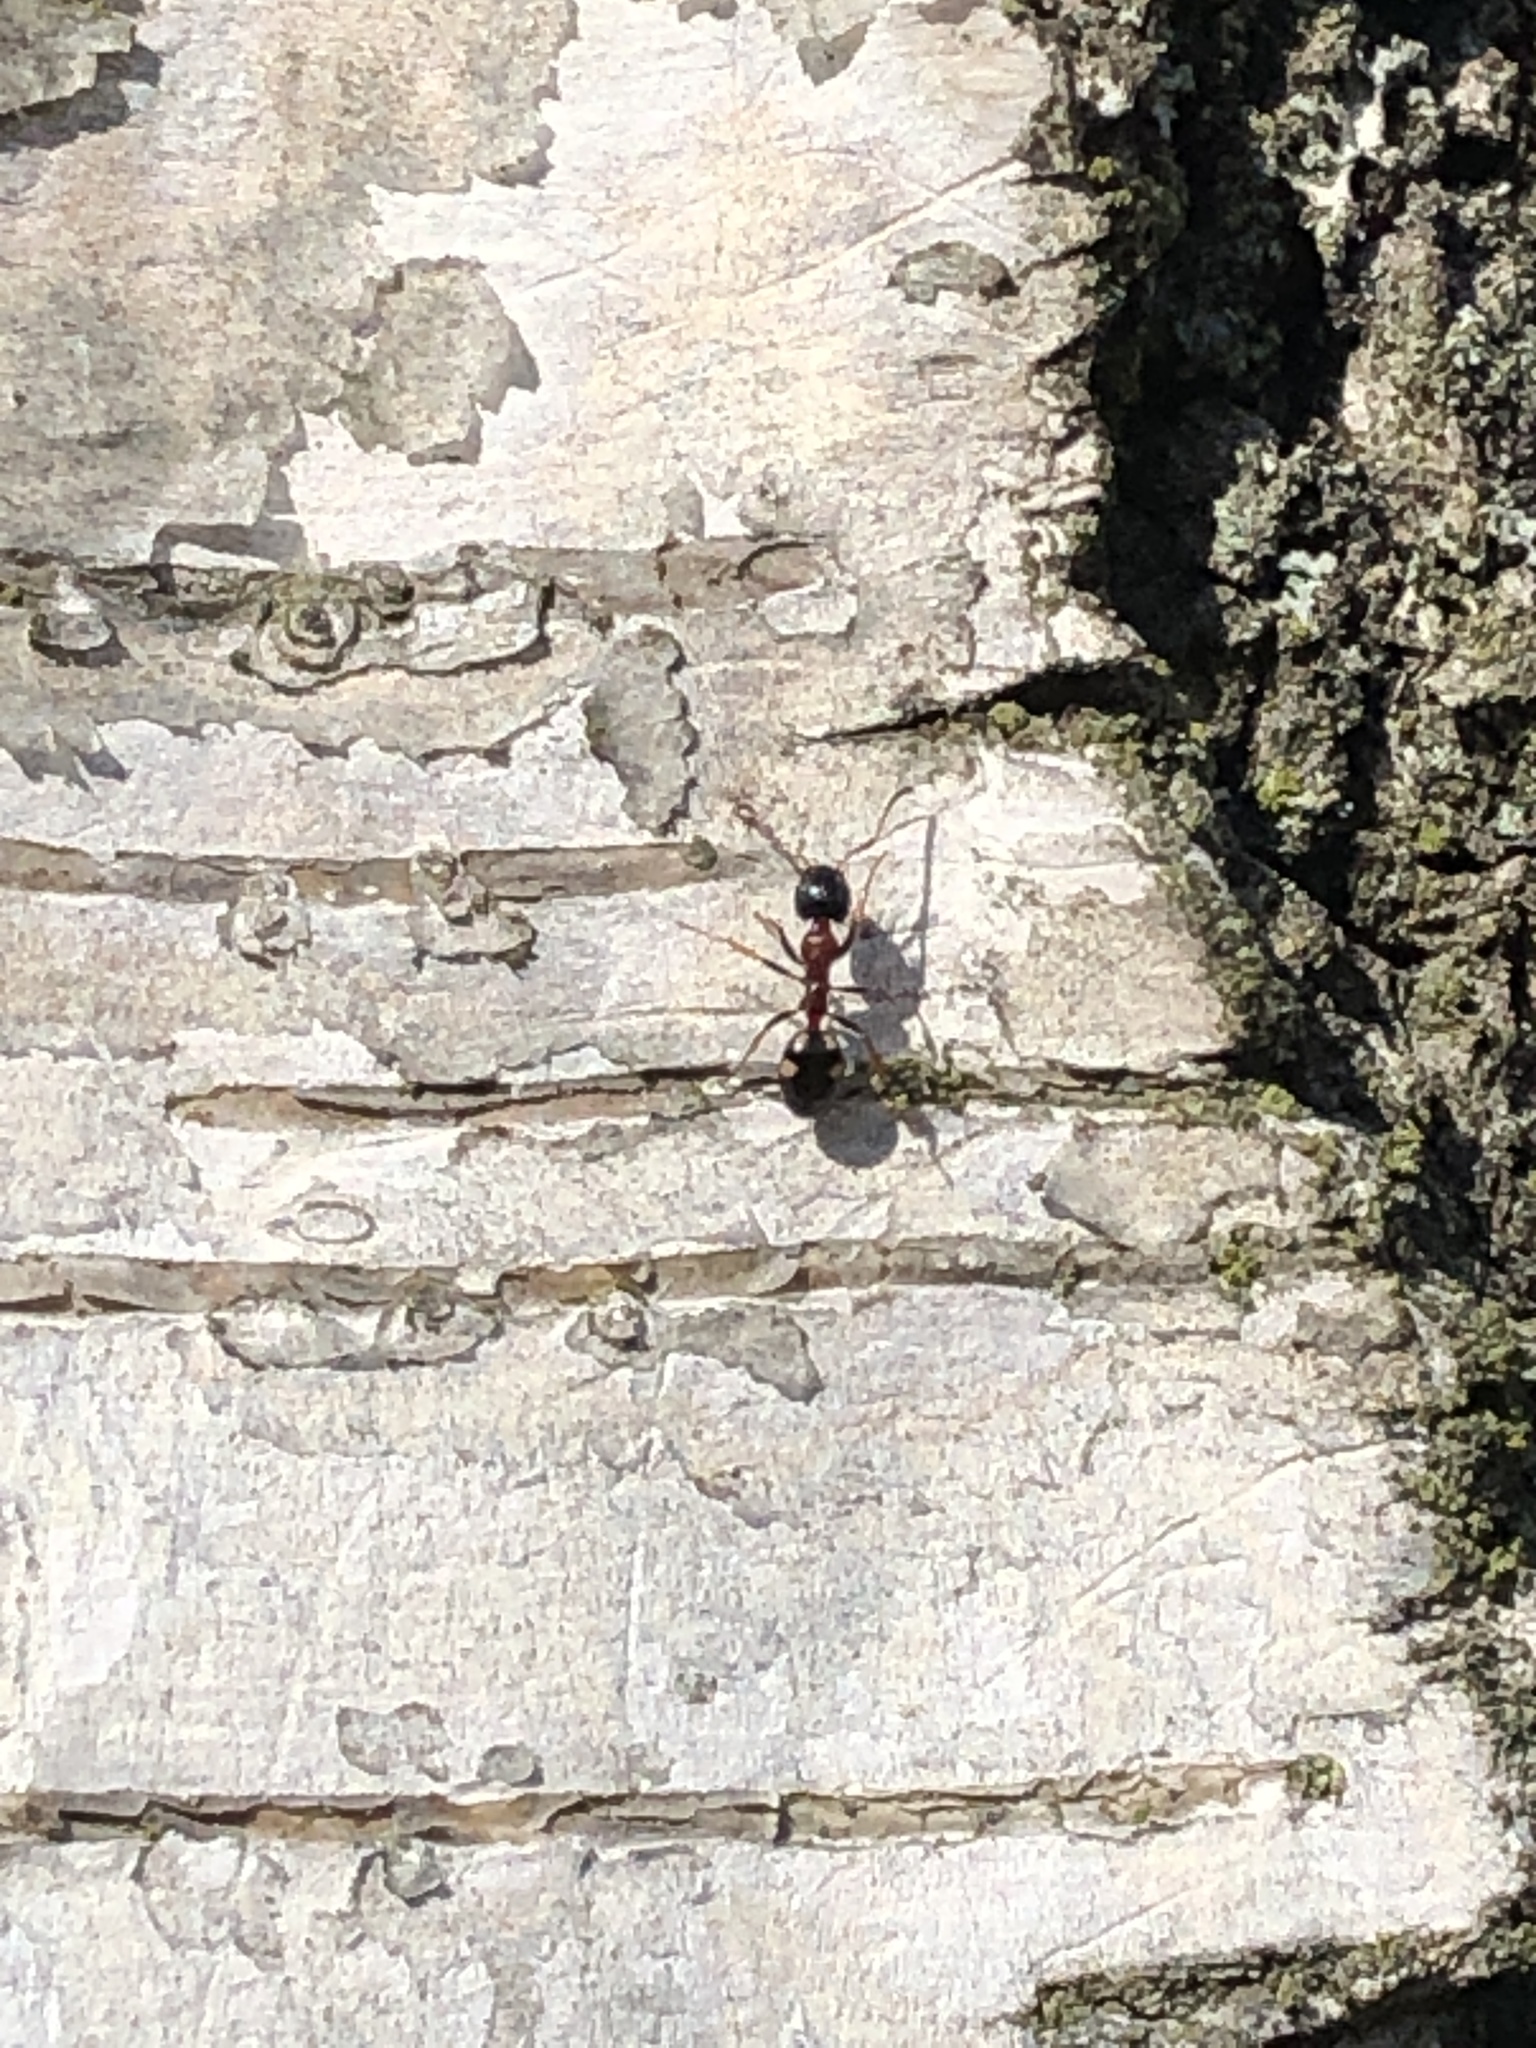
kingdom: Animalia
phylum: Arthropoda
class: Insecta
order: Hymenoptera
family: Formicidae
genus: Dolichoderus
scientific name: Dolichoderus quadripunctatus
